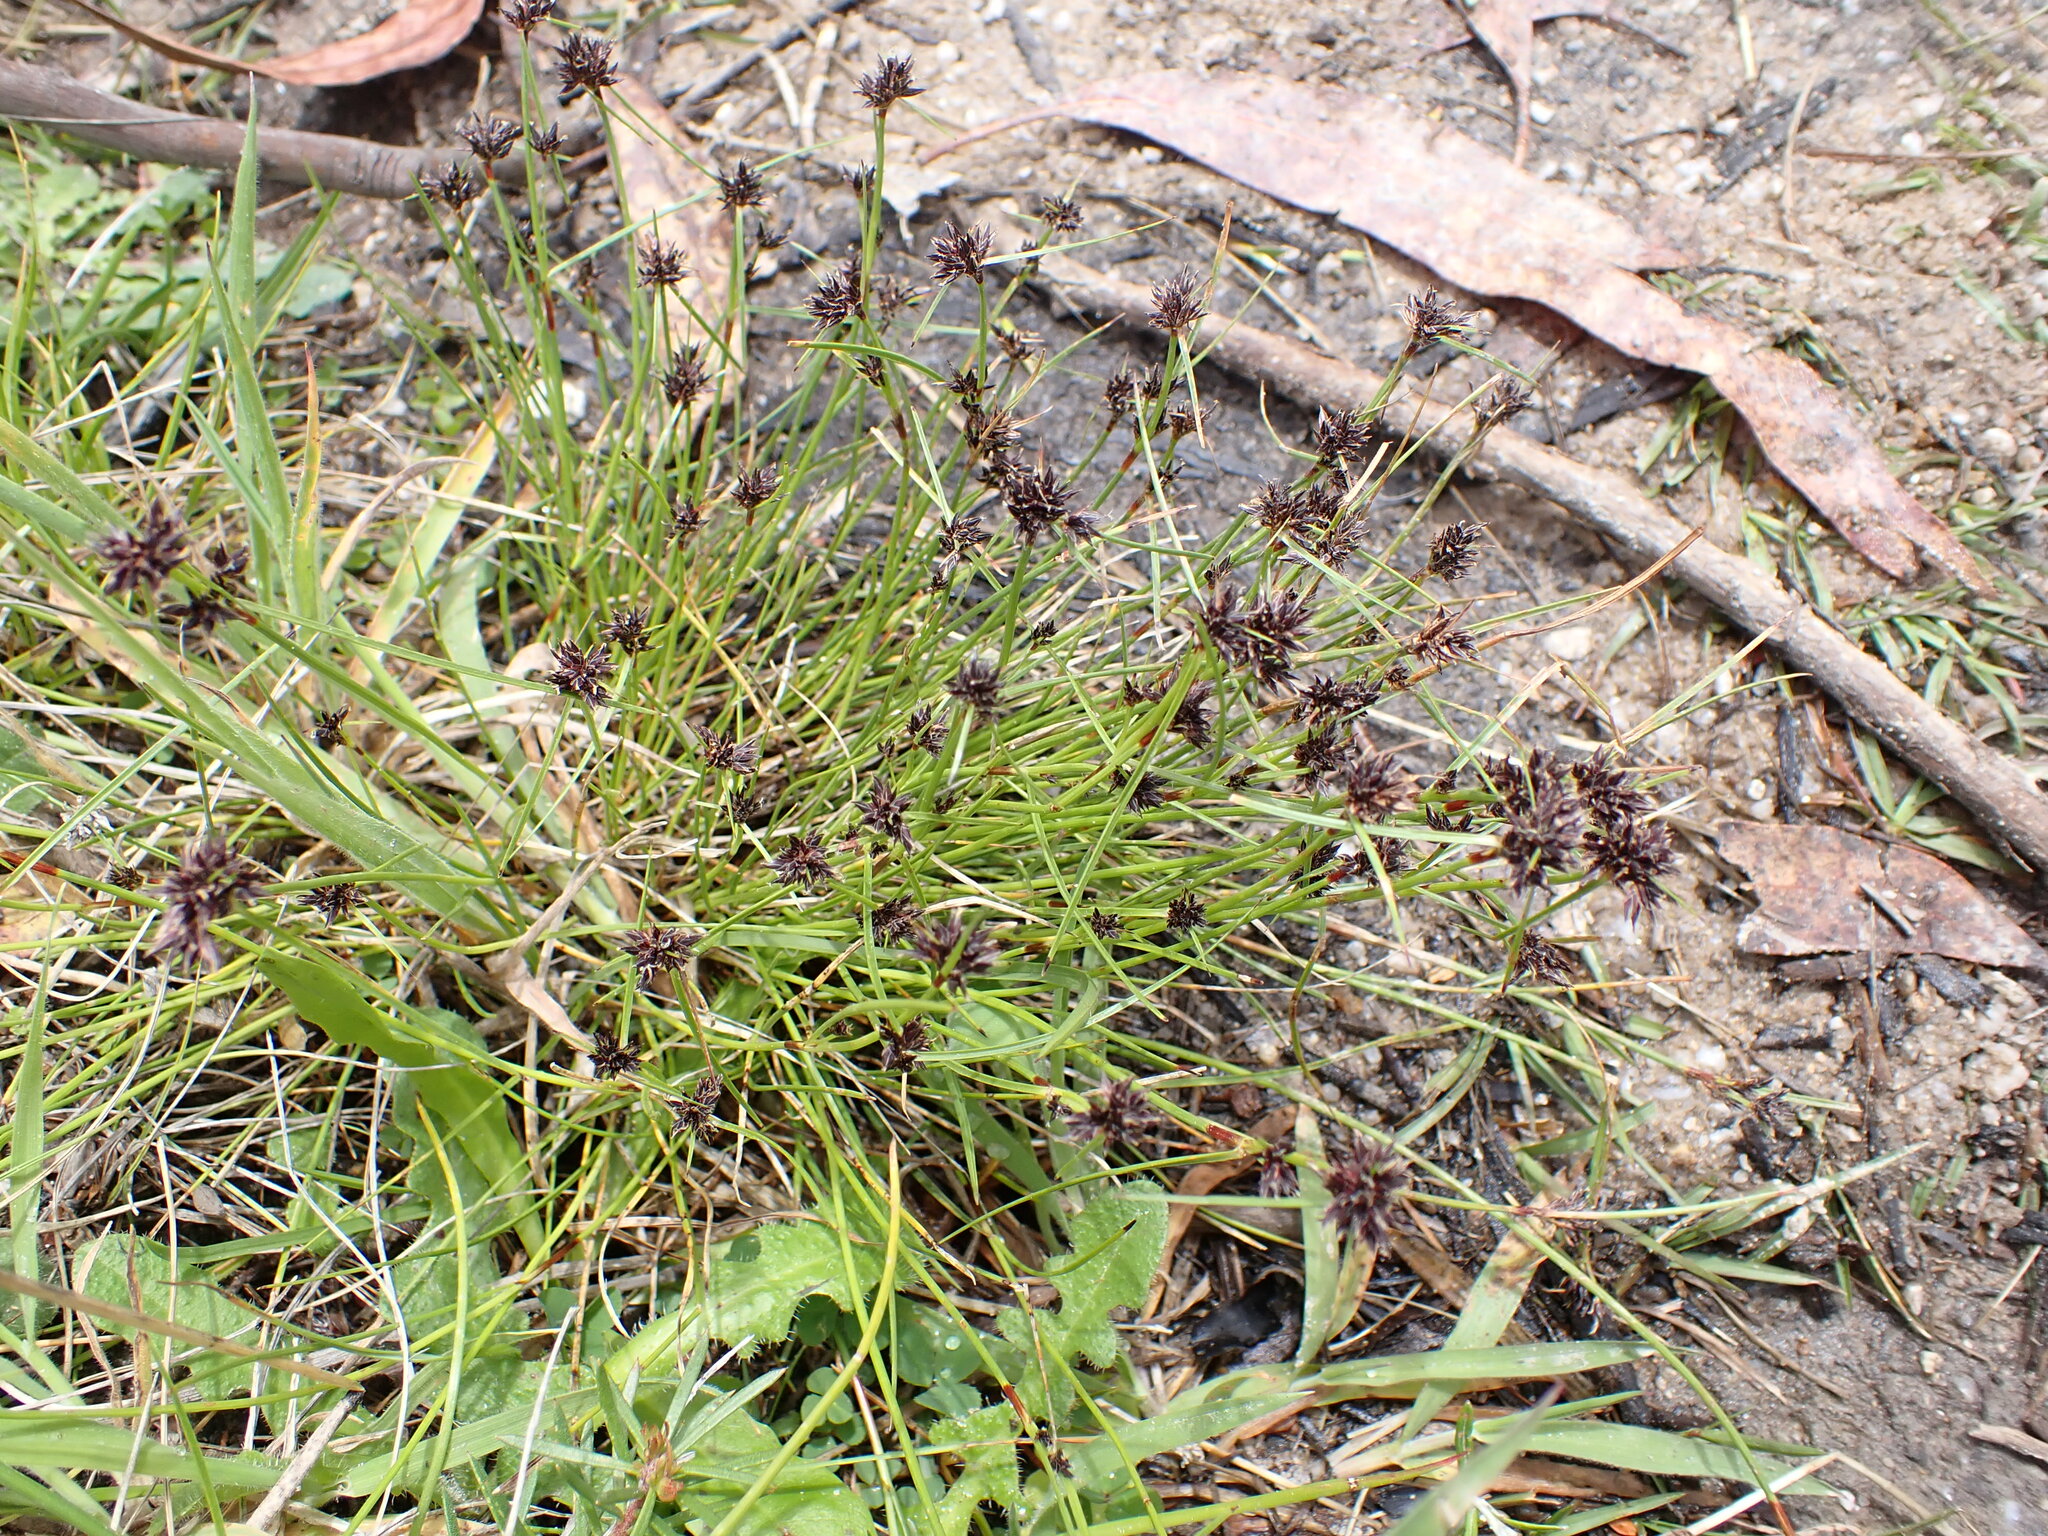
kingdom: Plantae
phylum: Tracheophyta
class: Liliopsida
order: Poales
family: Cyperaceae
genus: Schoenus
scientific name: Schoenus apogon
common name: Smooth bogrush
